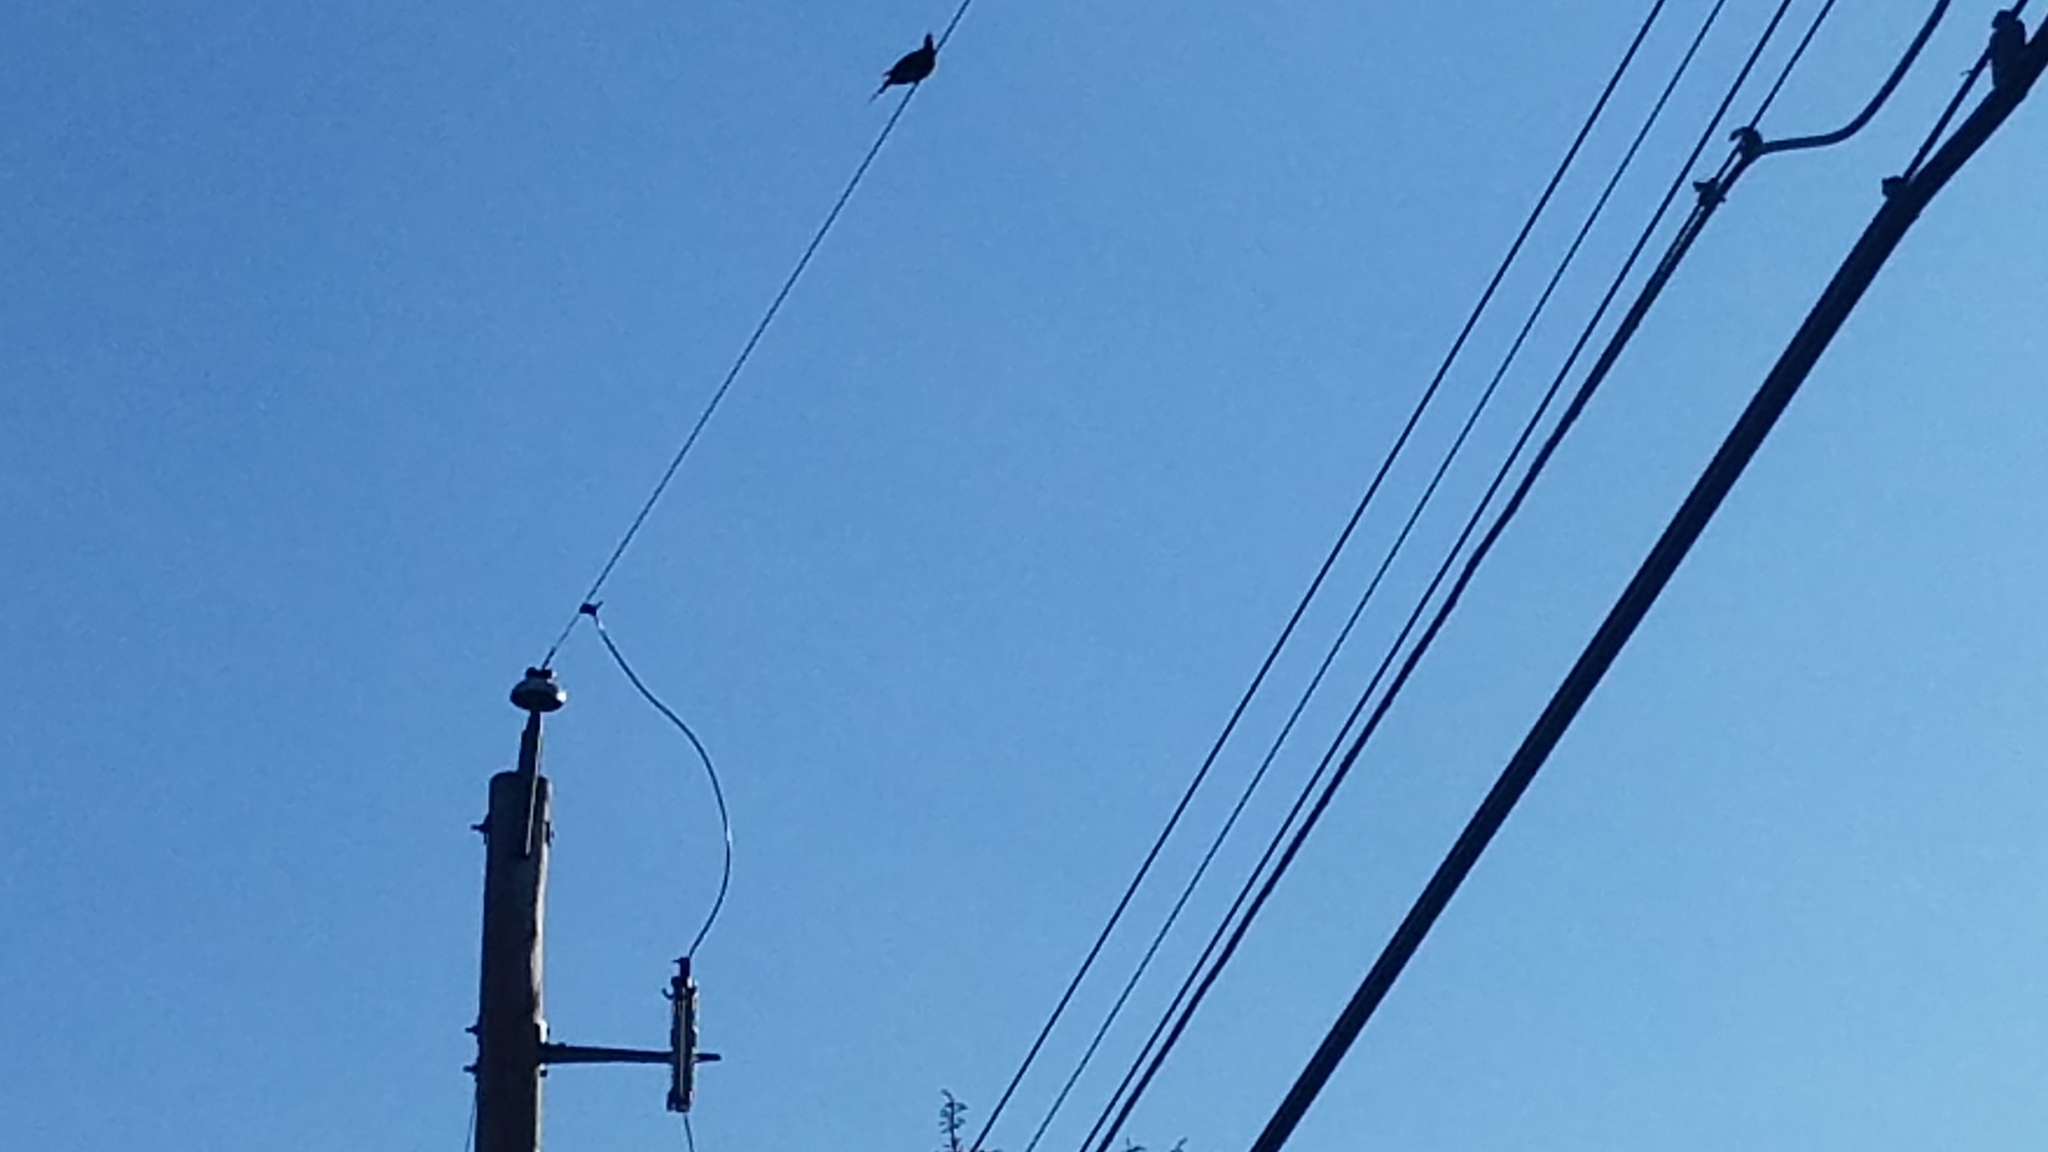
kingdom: Animalia
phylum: Chordata
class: Aves
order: Columbiformes
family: Columbidae
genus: Zenaida
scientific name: Zenaida macroura
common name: Mourning dove
